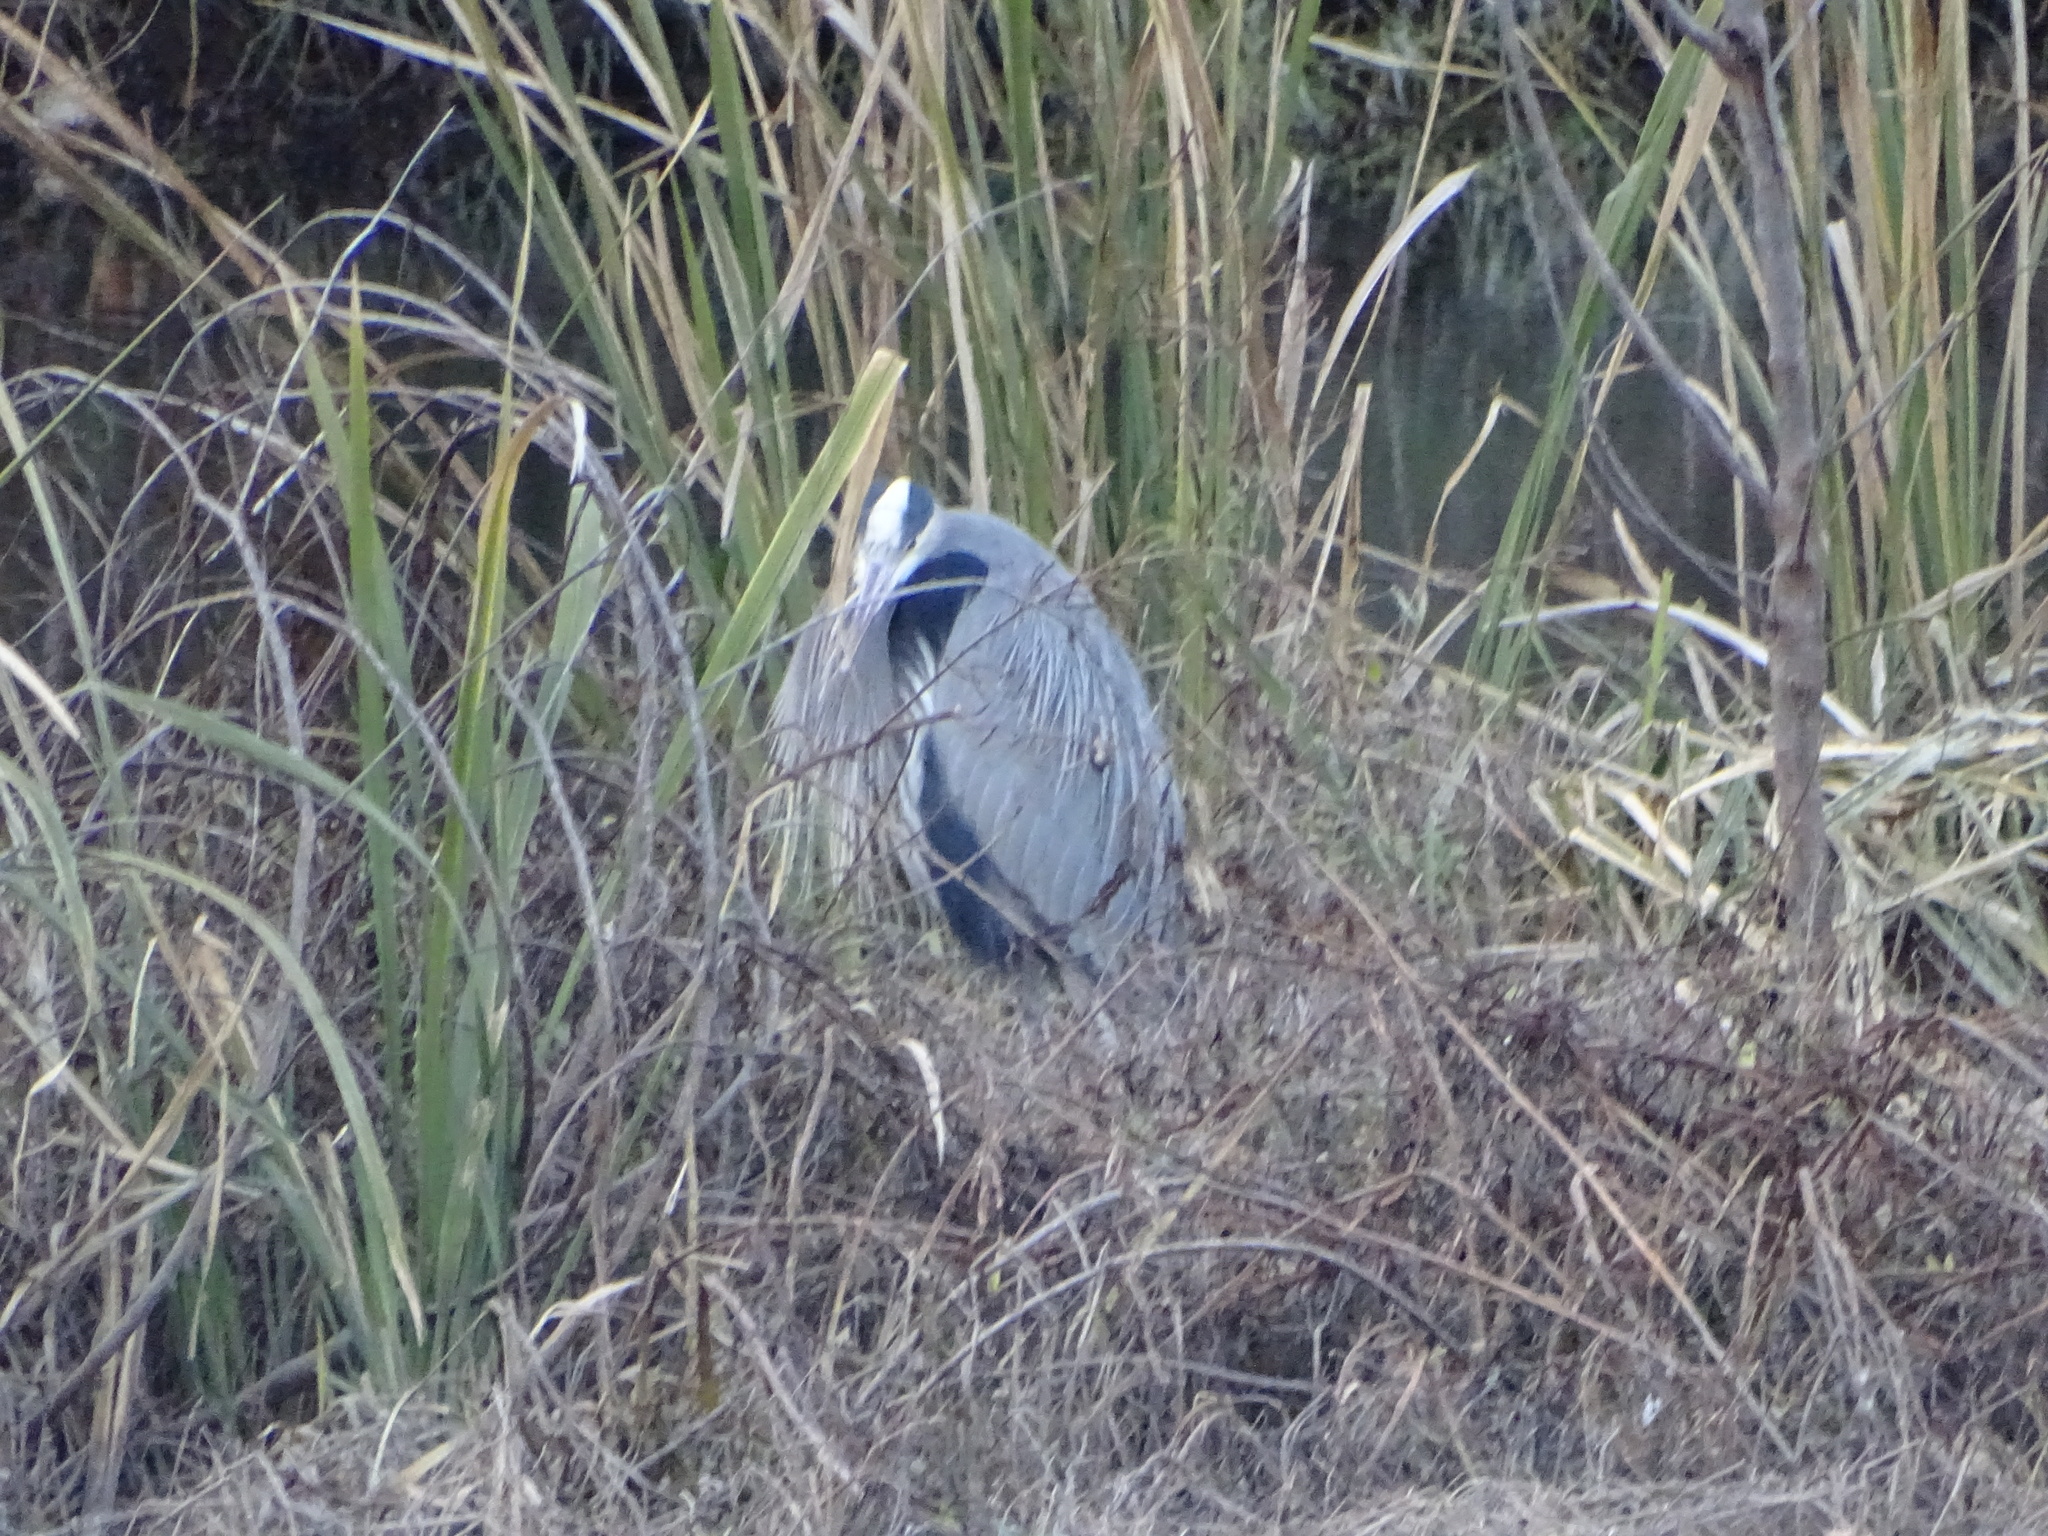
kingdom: Animalia
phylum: Chordata
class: Aves
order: Pelecaniformes
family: Ardeidae
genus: Ardea
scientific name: Ardea herodias
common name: Great blue heron
